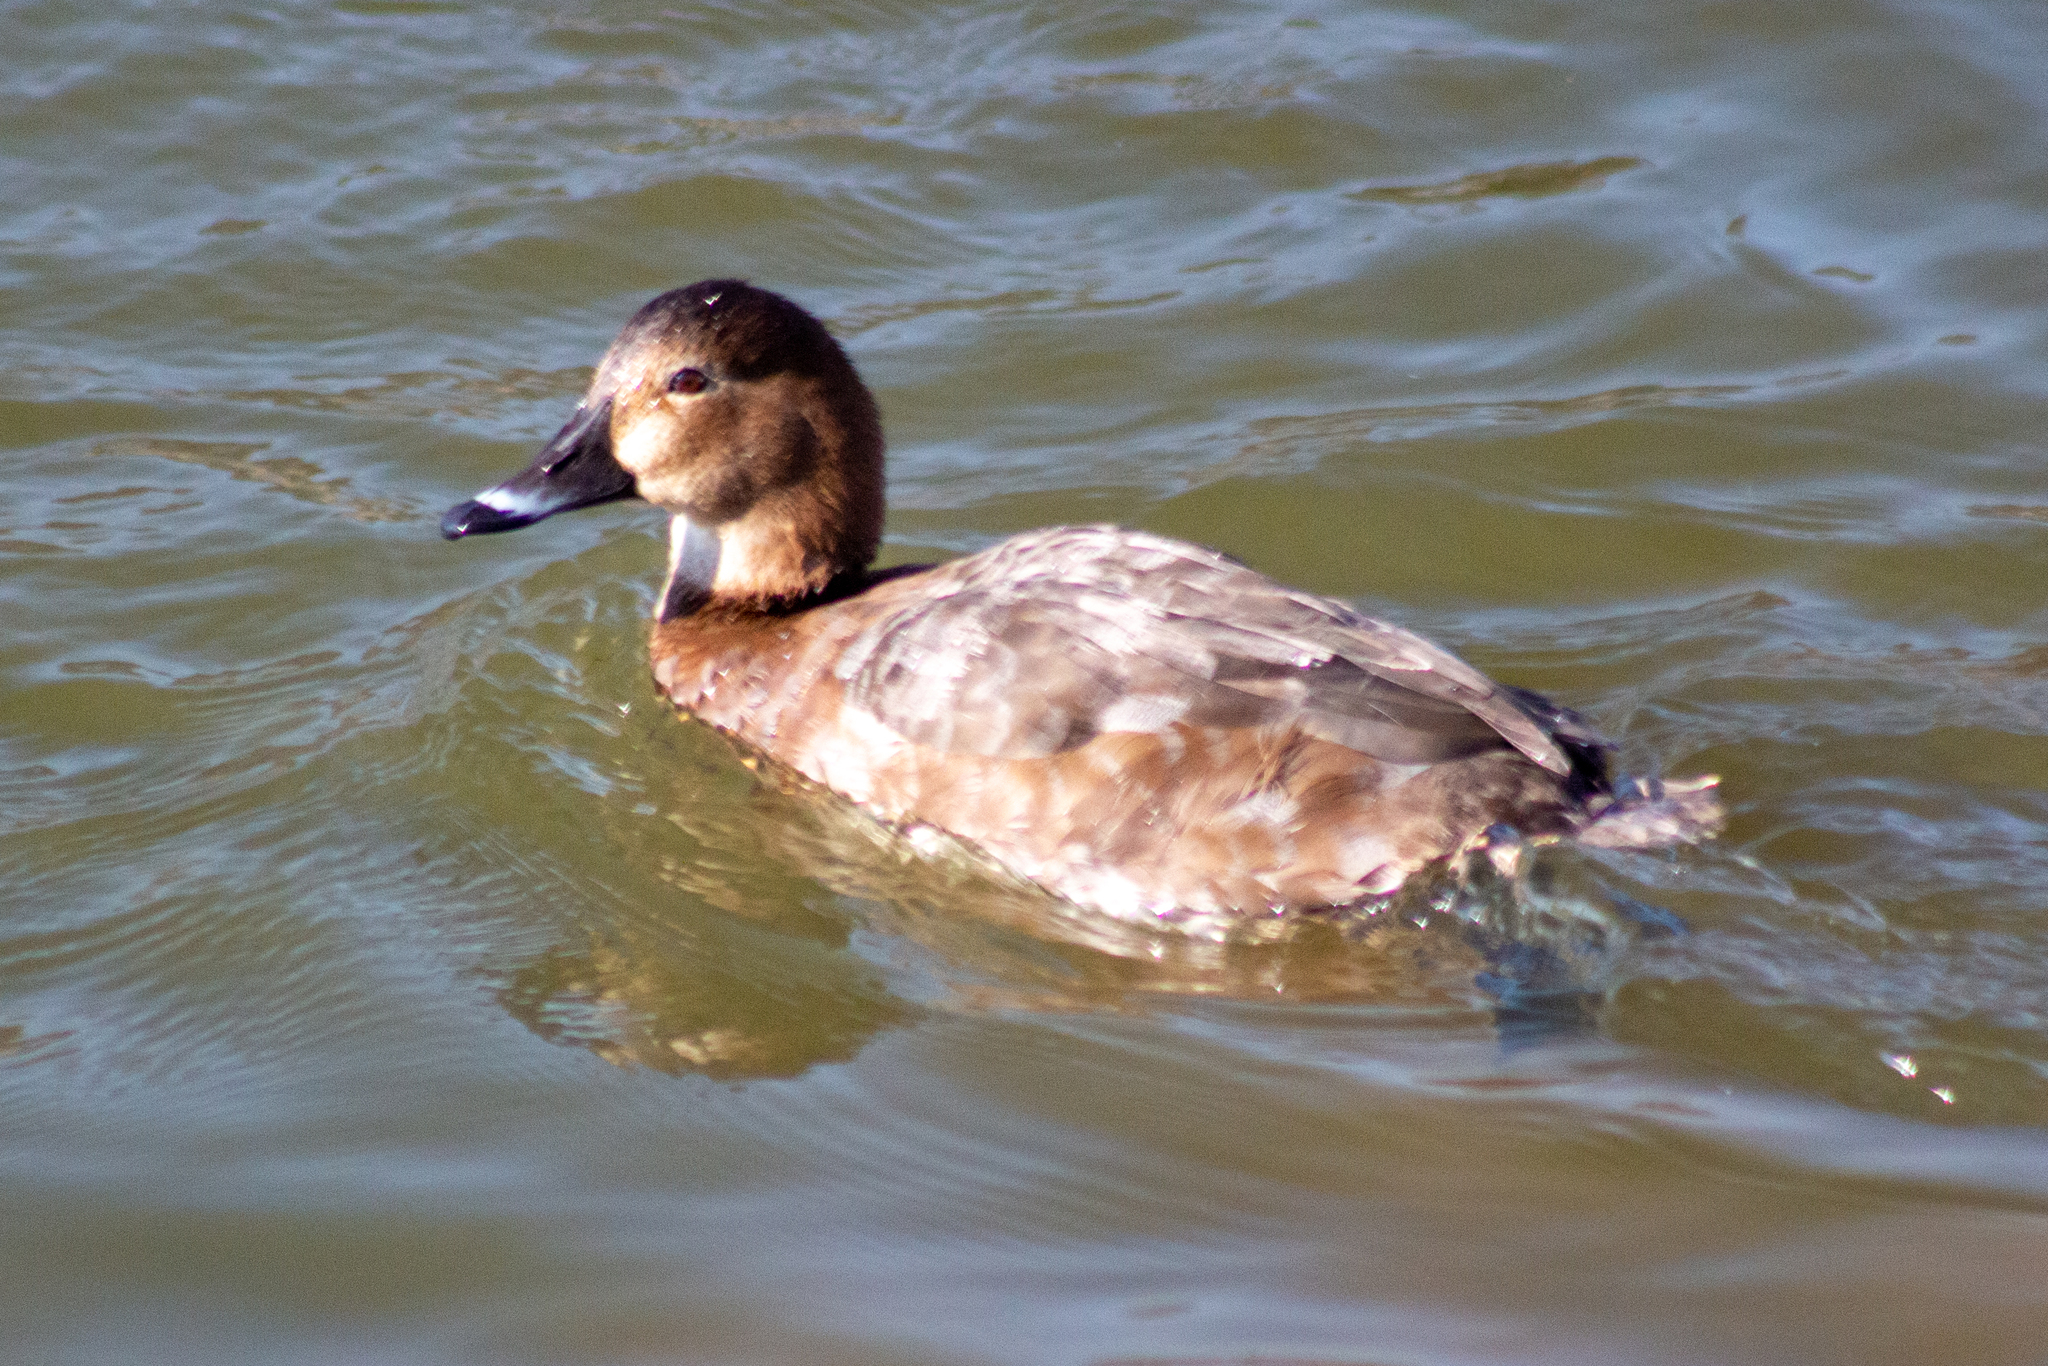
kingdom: Animalia
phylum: Chordata
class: Aves
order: Anseriformes
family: Anatidae
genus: Aythya
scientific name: Aythya ferina
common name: Common pochard
